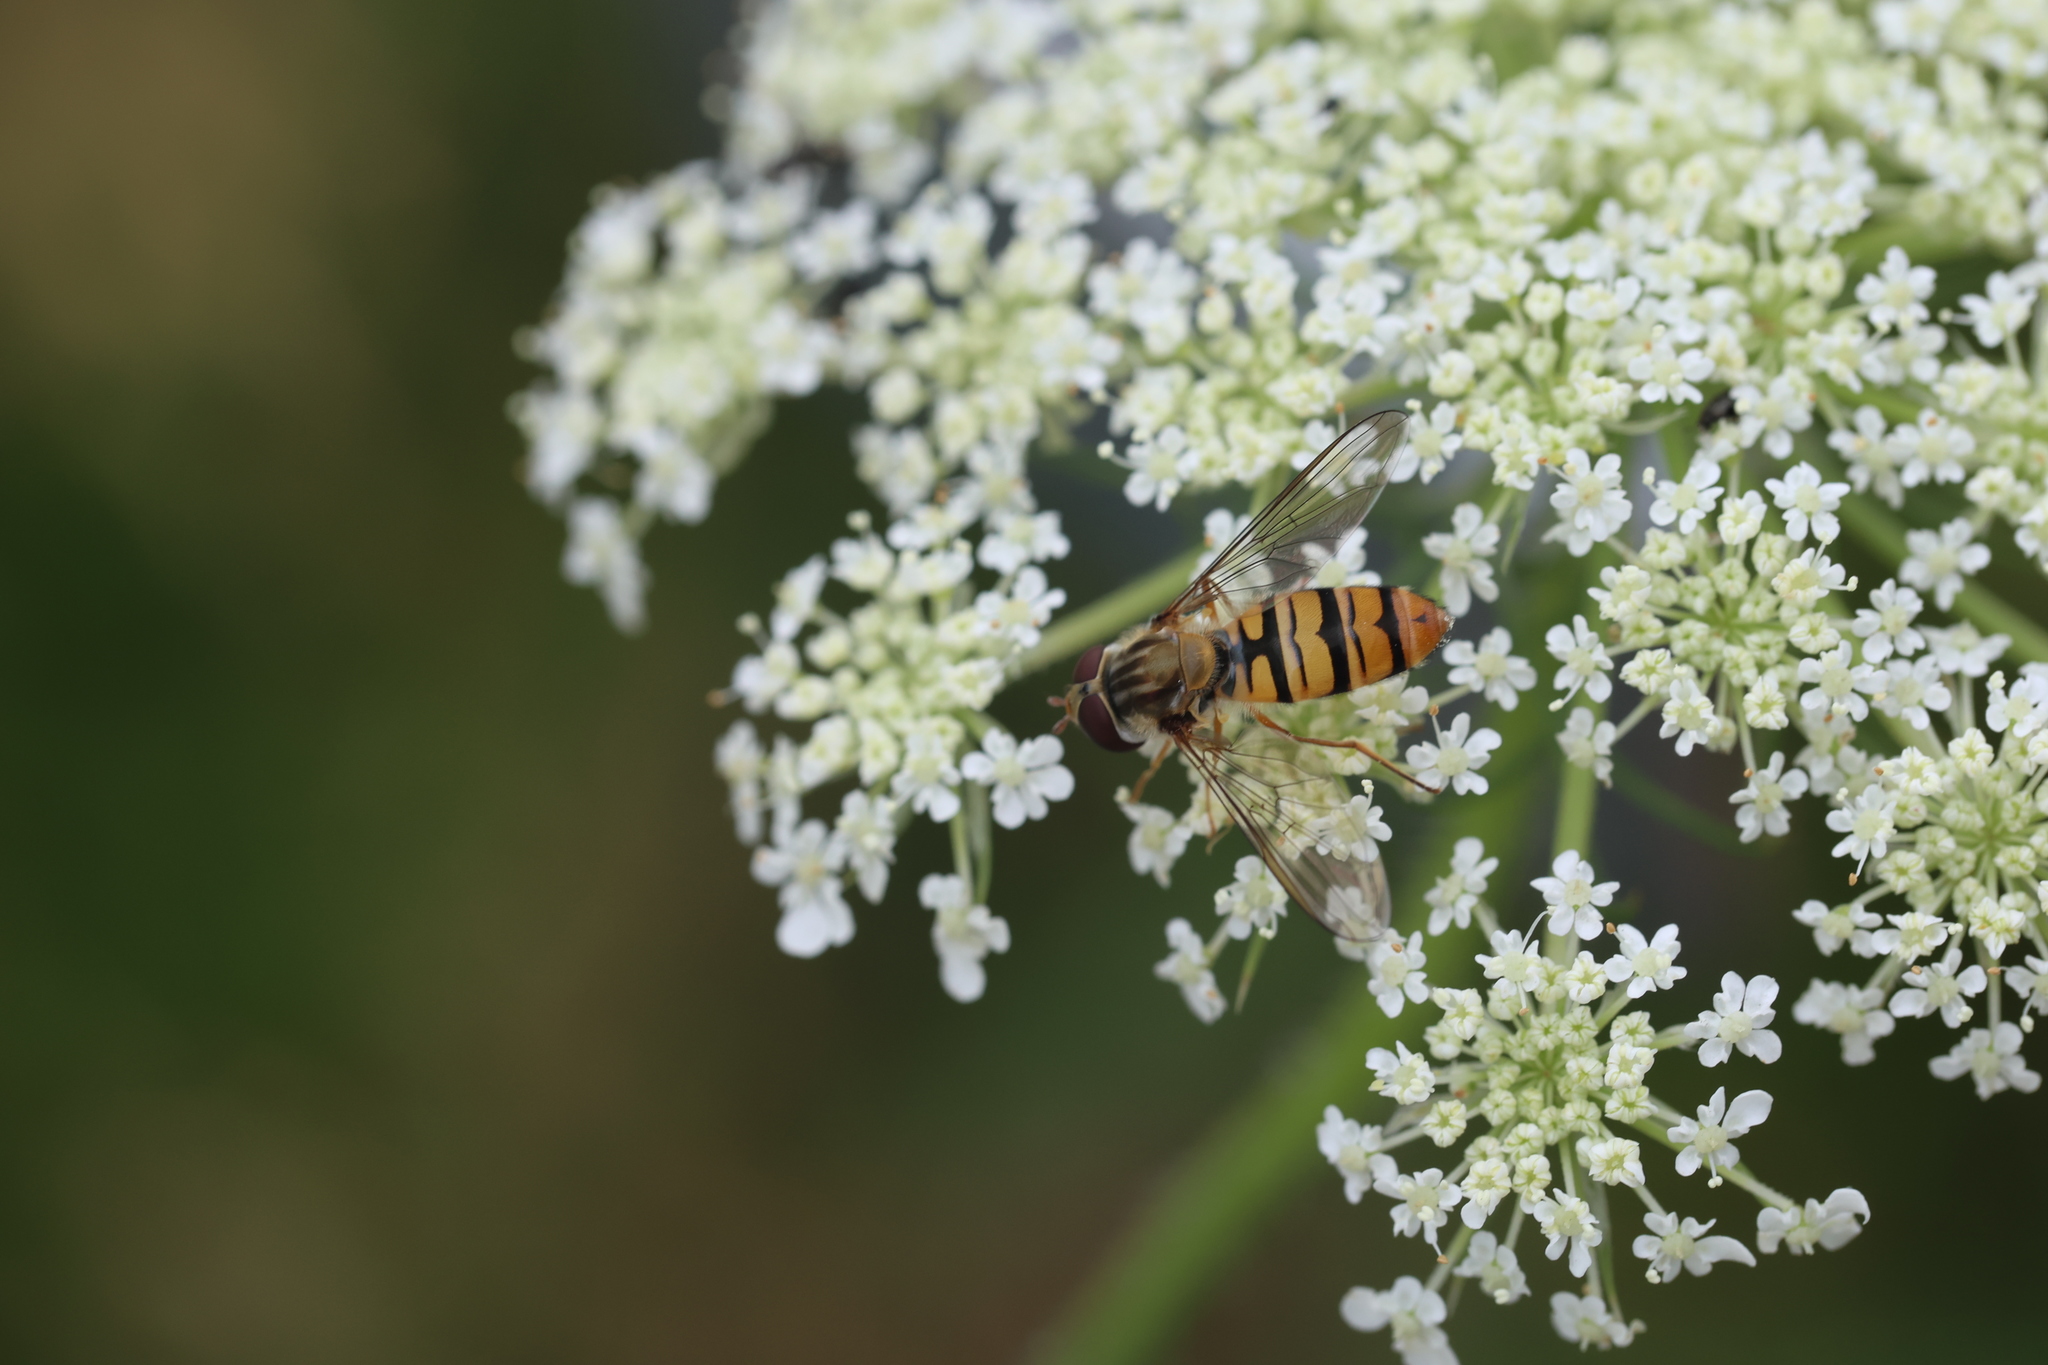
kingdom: Animalia
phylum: Arthropoda
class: Insecta
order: Diptera
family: Syrphidae
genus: Episyrphus
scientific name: Episyrphus balteatus
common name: Marmalade hoverfly
